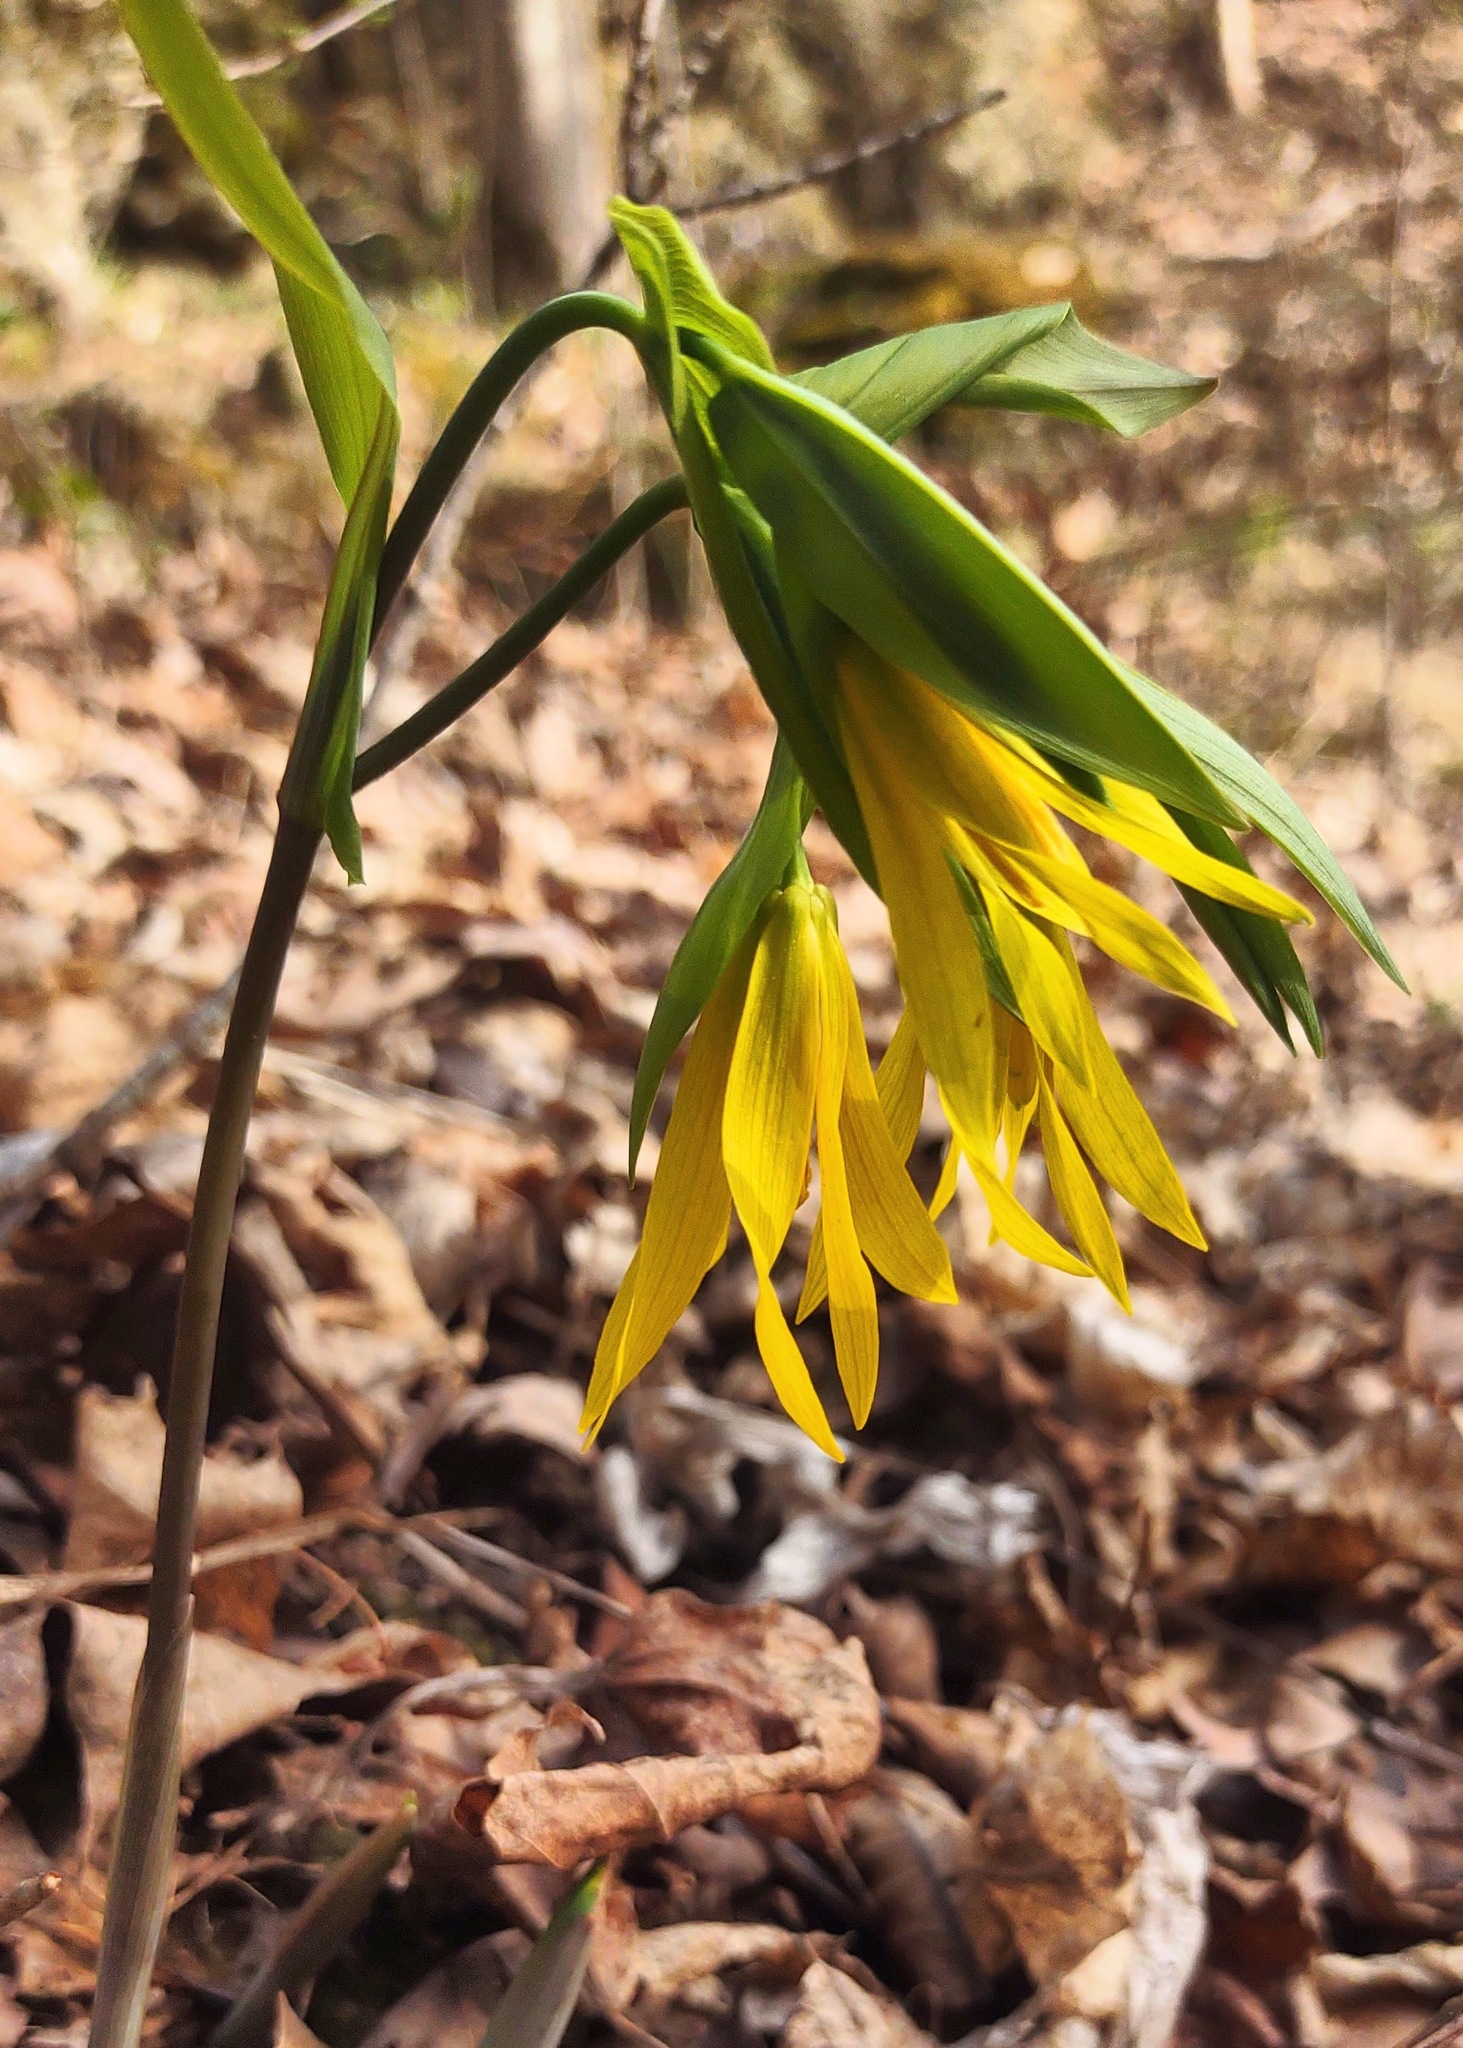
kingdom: Plantae
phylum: Tracheophyta
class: Liliopsida
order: Liliales
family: Colchicaceae
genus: Uvularia
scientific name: Uvularia grandiflora
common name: Bellwort
